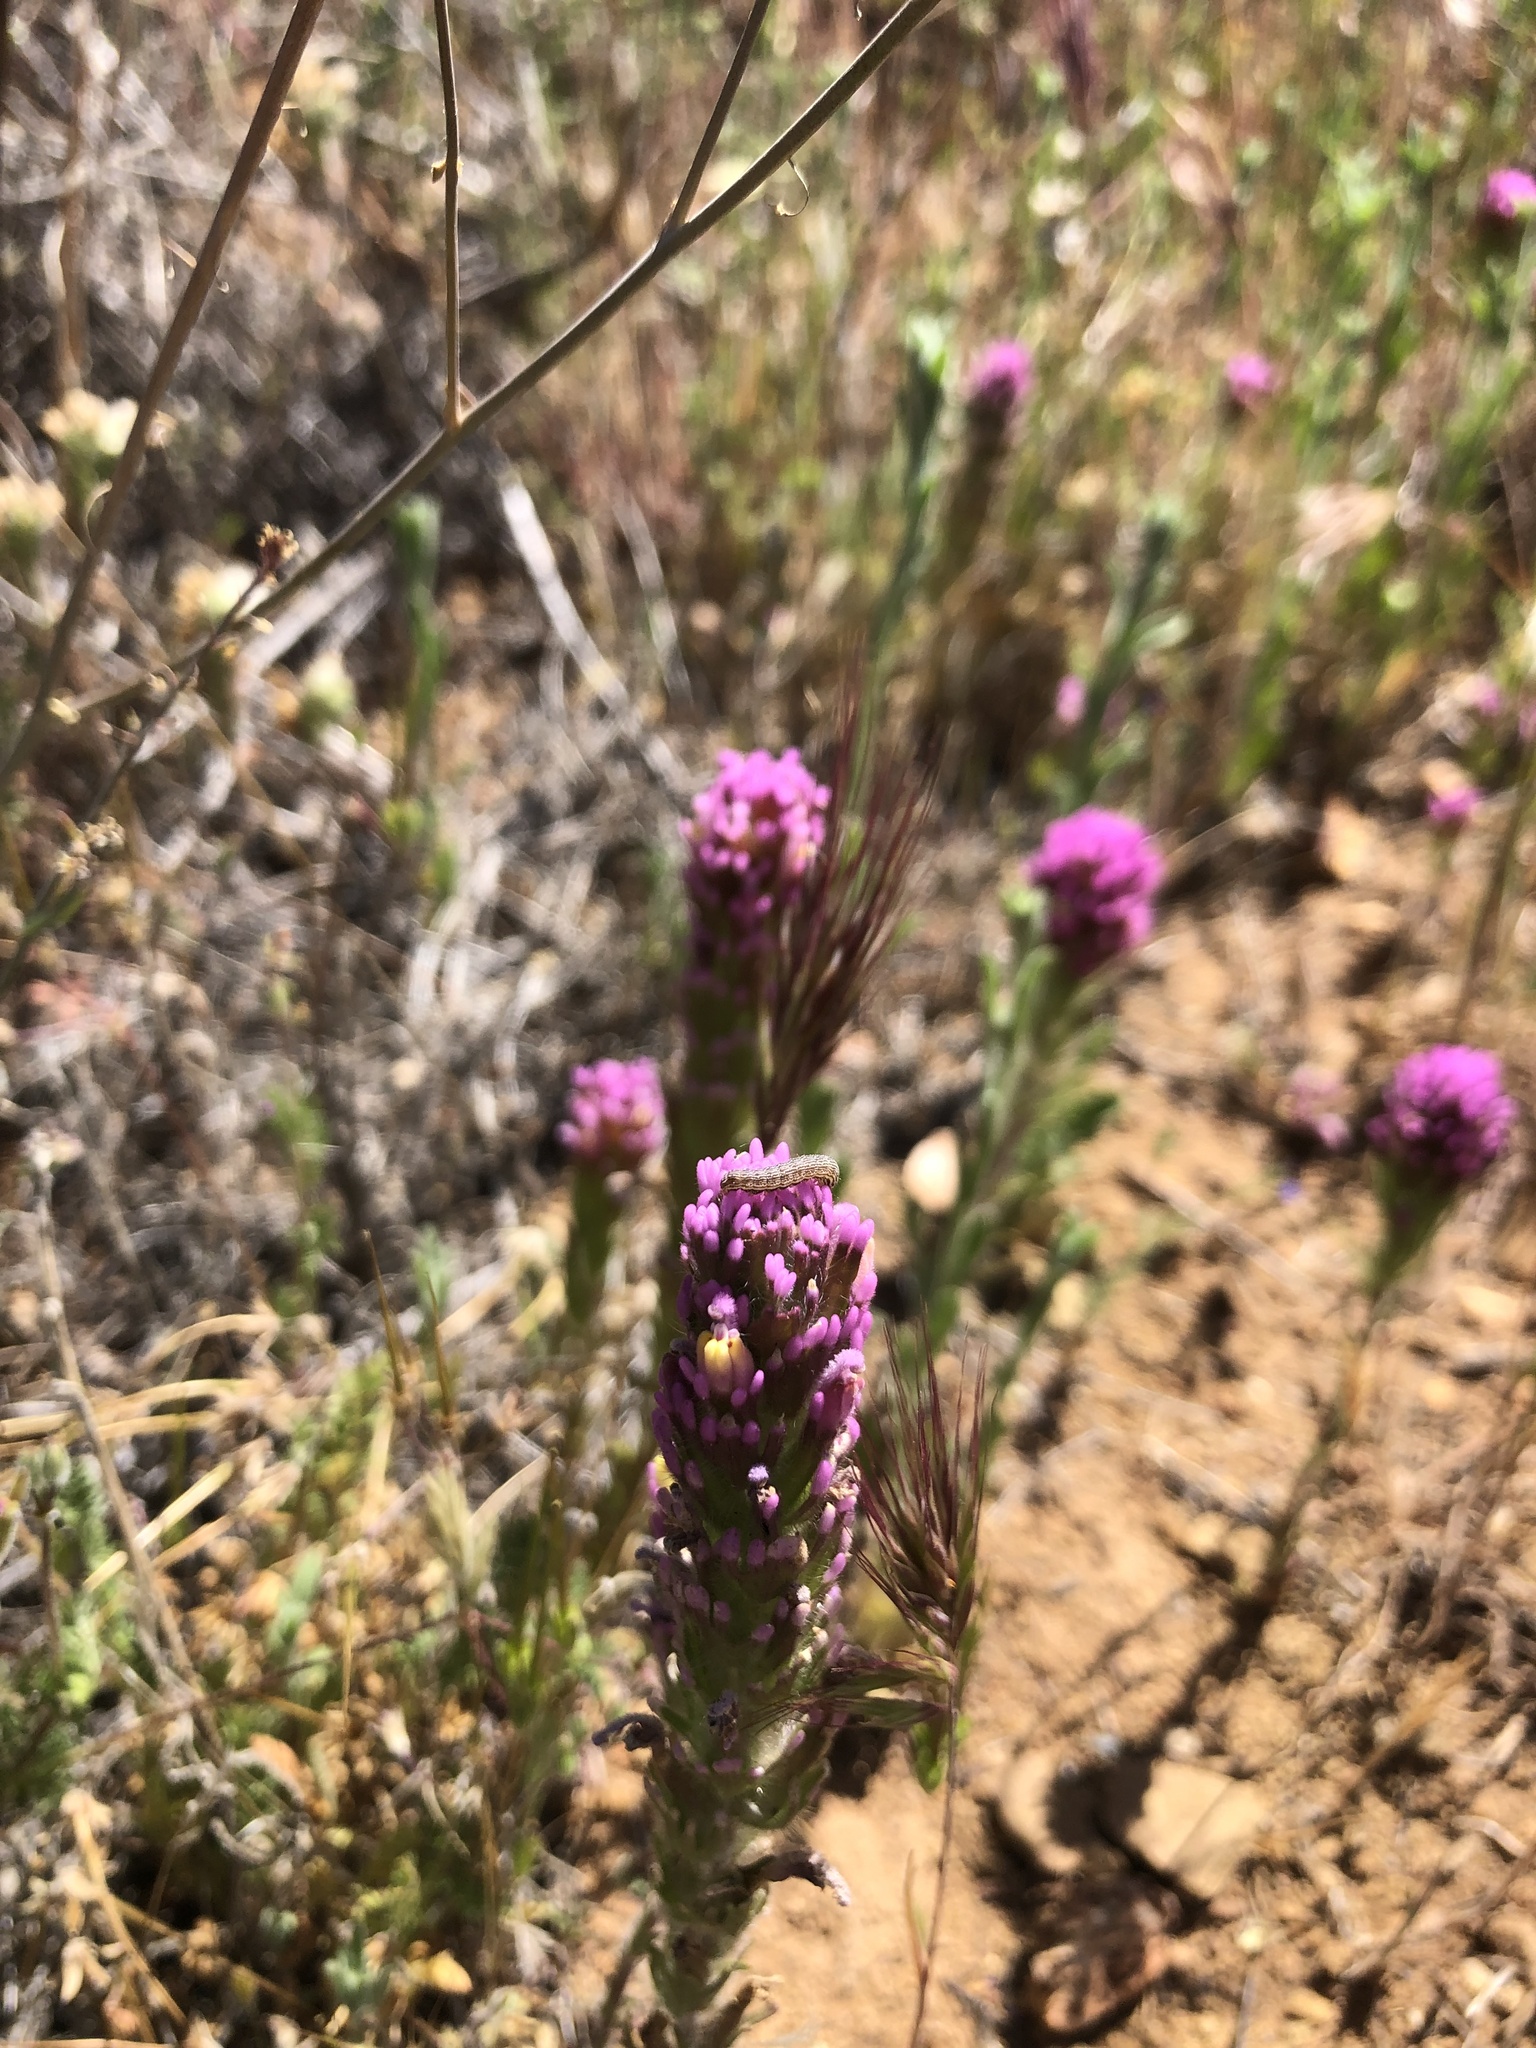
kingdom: Plantae
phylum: Tracheophyta
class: Magnoliopsida
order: Lamiales
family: Orobanchaceae
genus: Castilleja
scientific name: Castilleja exserta
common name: Purple owl-clover
